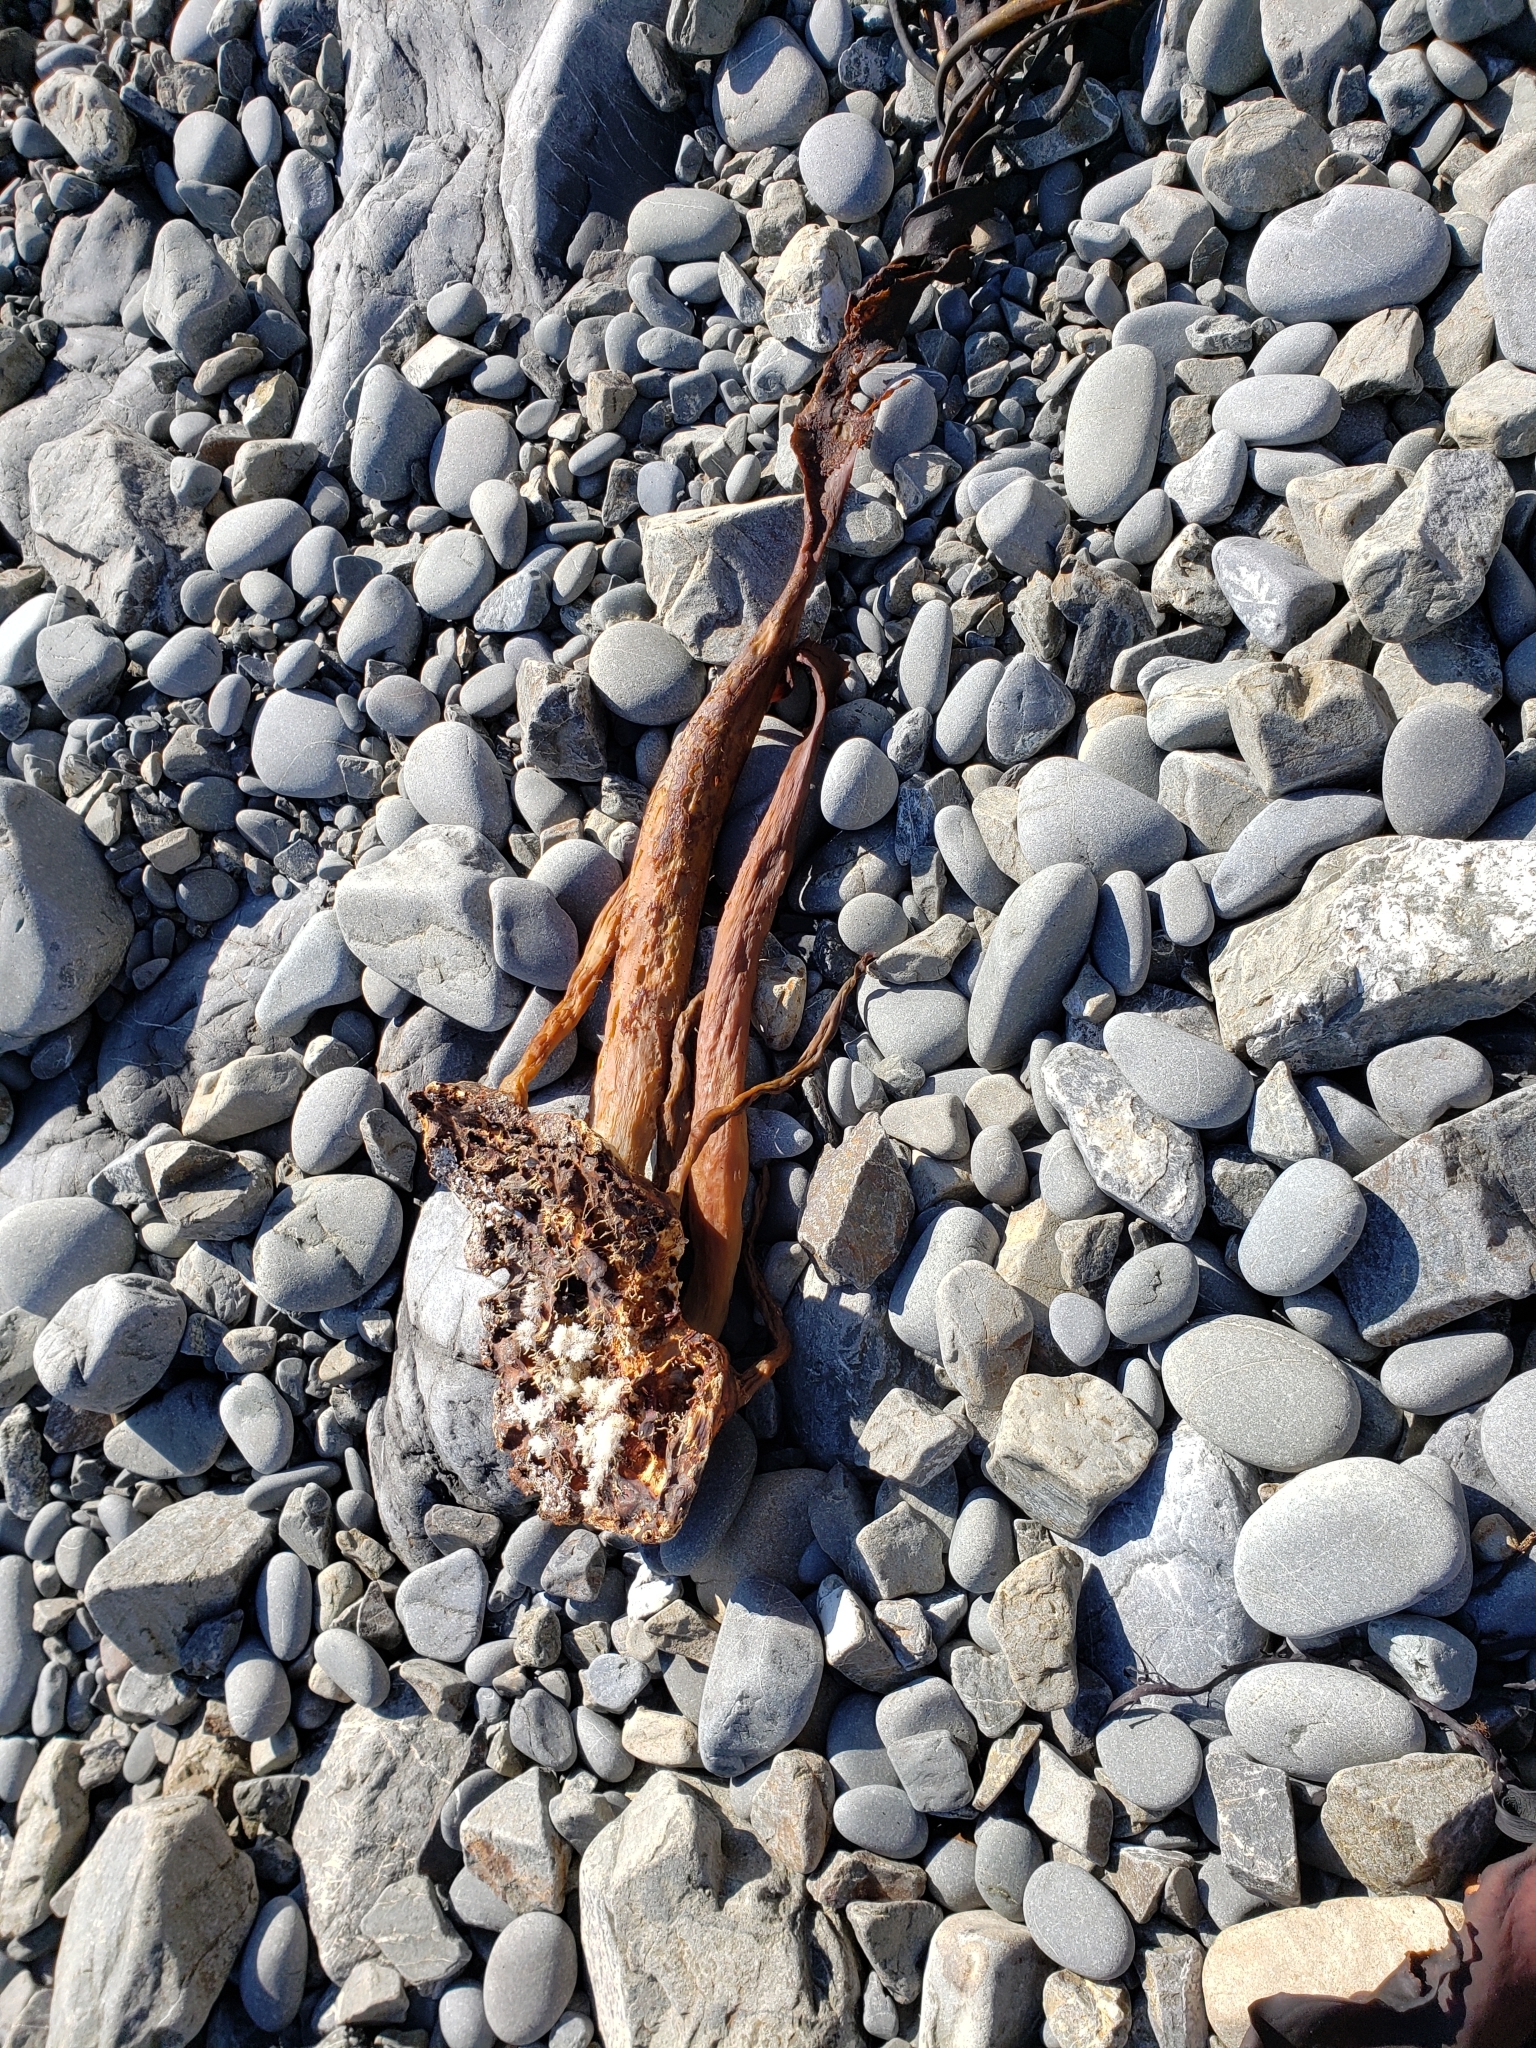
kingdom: Chromista
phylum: Ochrophyta
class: Phaeophyceae
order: Fucales
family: Durvillaeaceae
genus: Durvillaea
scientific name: Durvillaea antarctica
